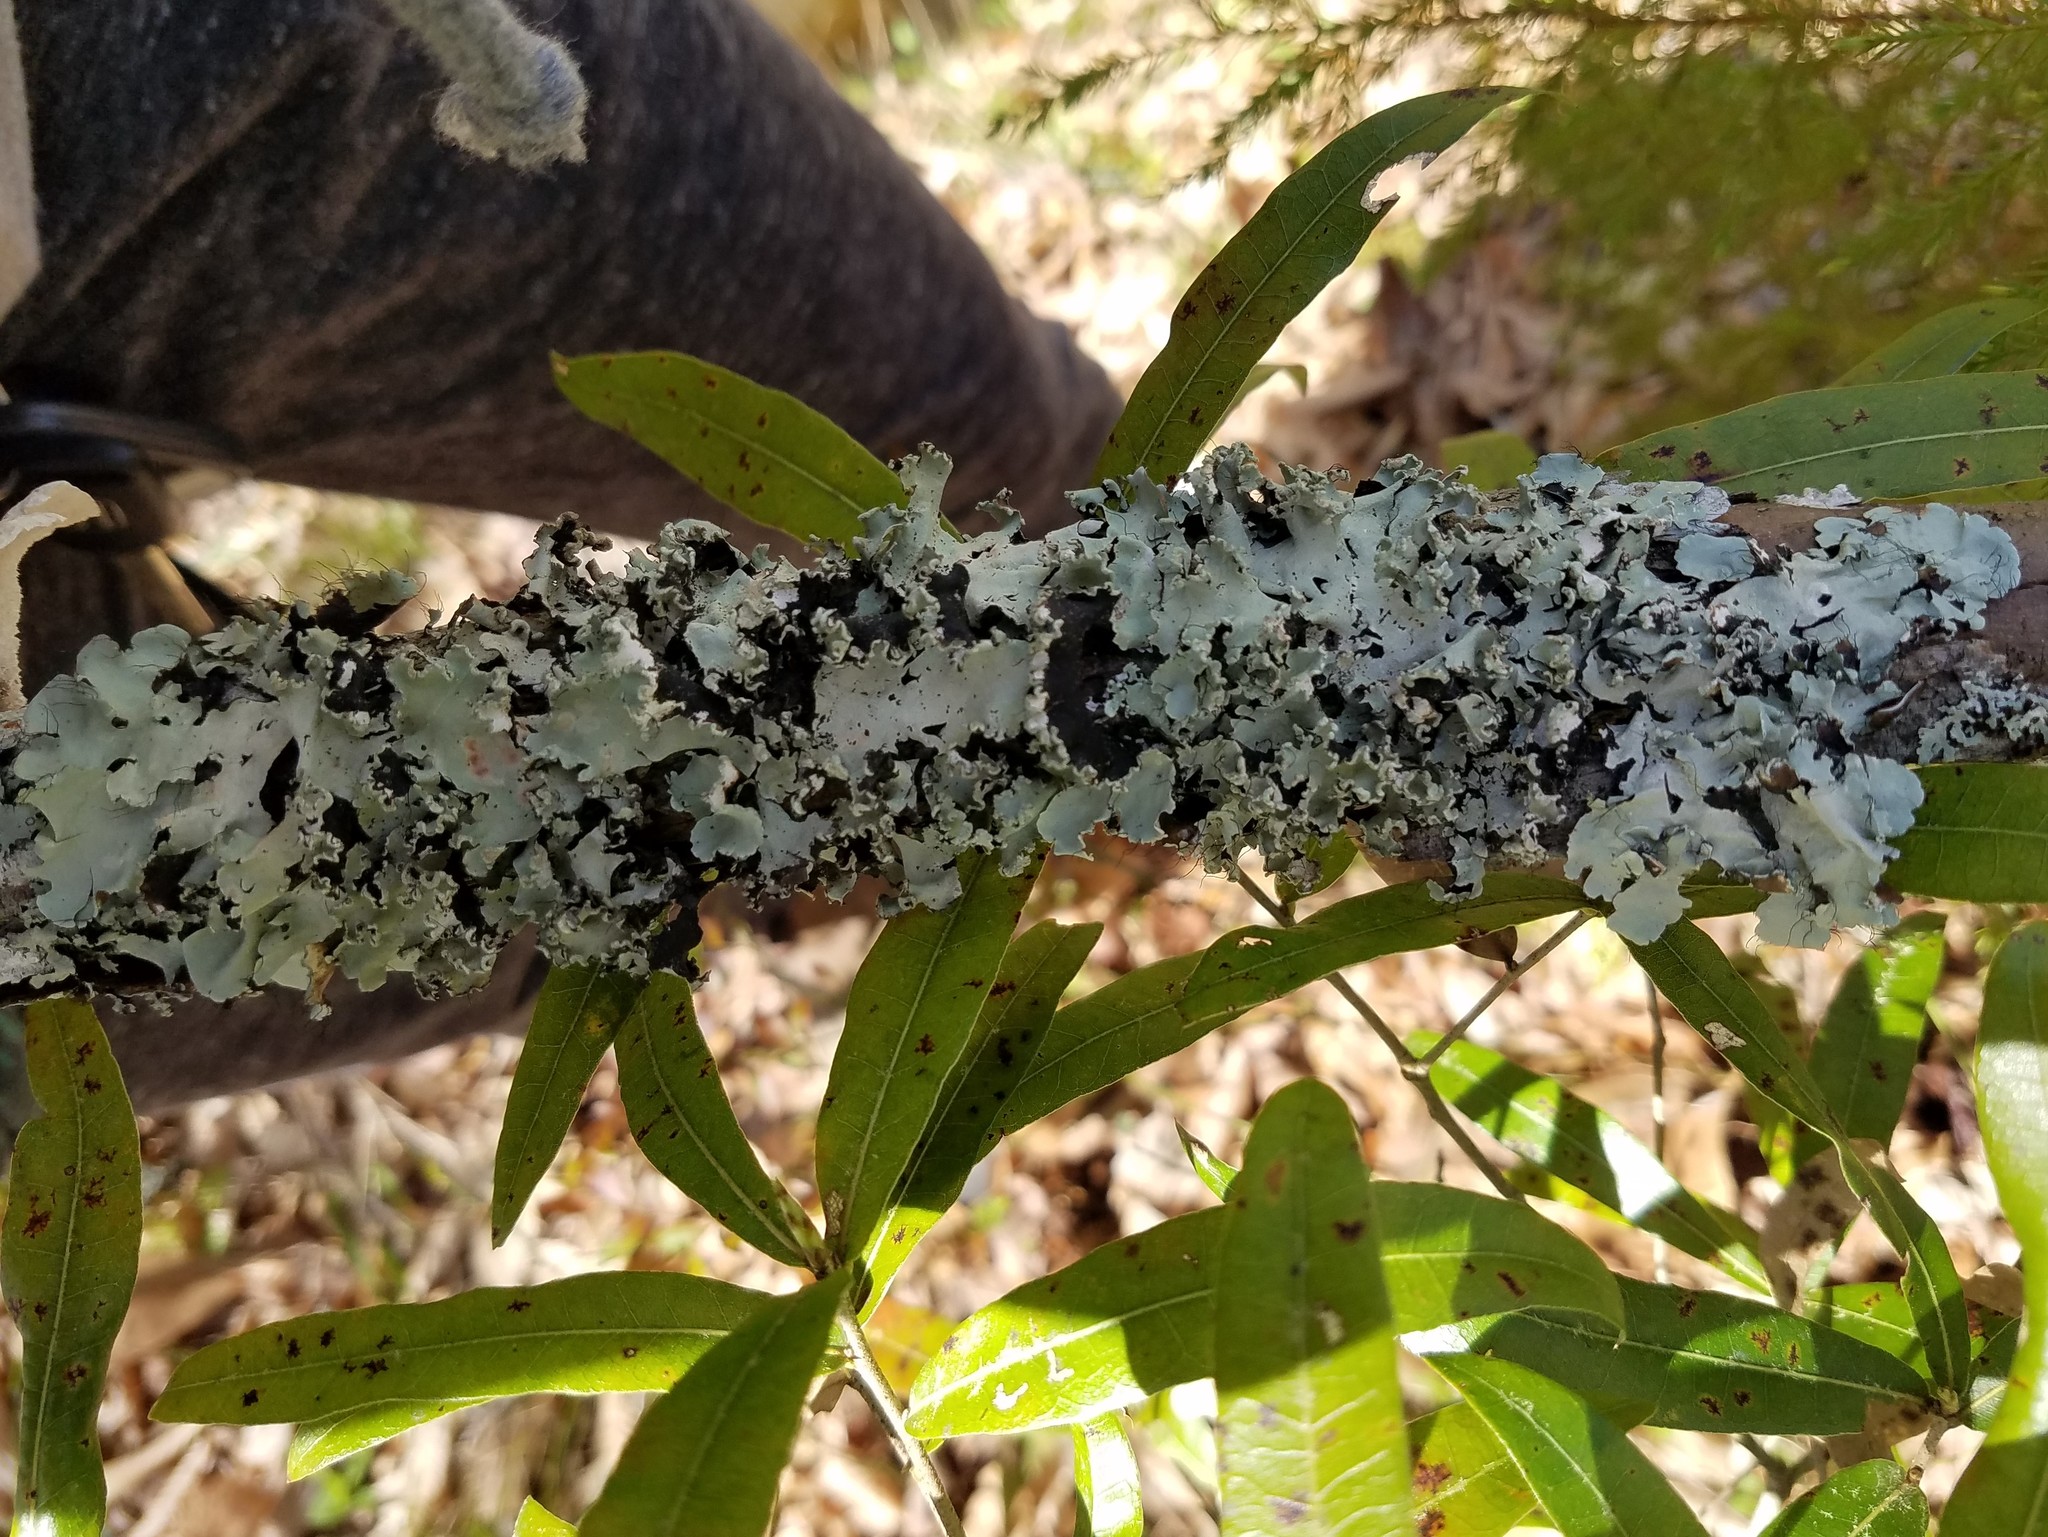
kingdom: Fungi
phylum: Ascomycota
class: Lecanoromycetes
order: Lecanorales
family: Parmeliaceae
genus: Parmotrema
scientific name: Parmotrema rampoddense
